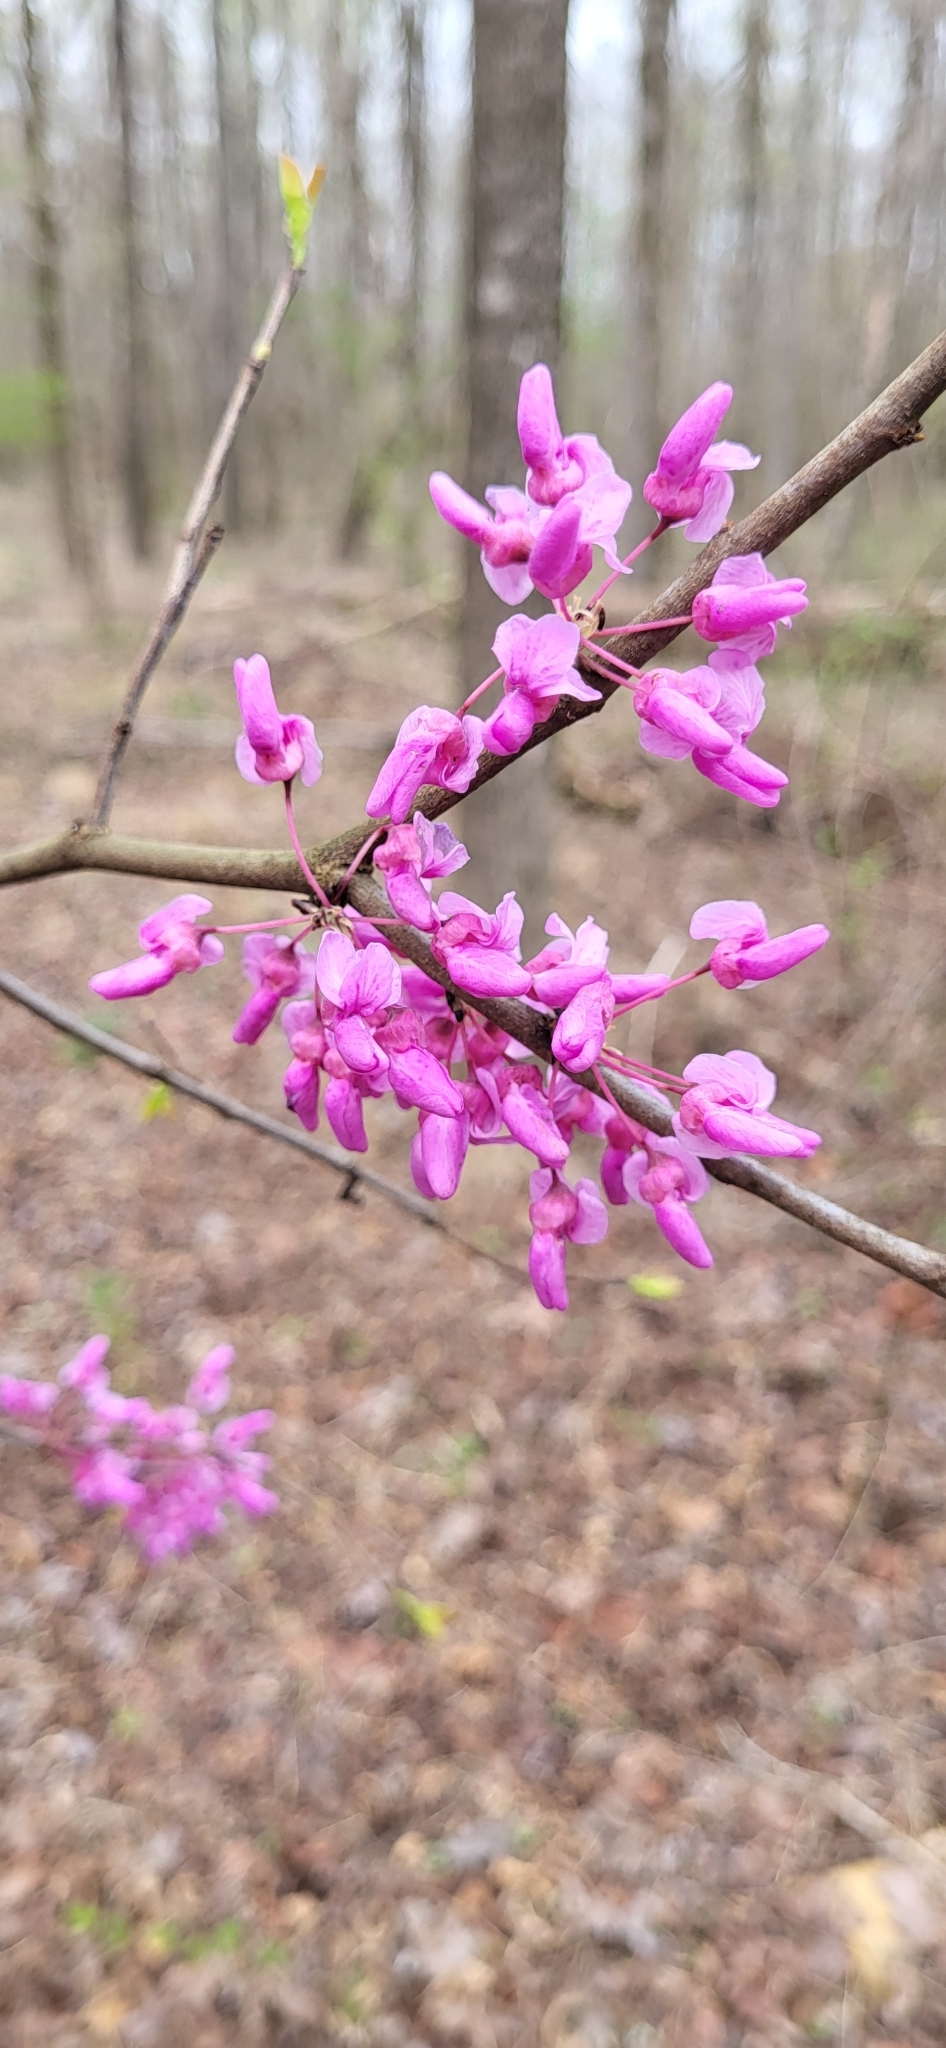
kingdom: Plantae
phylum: Tracheophyta
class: Magnoliopsida
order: Fabales
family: Fabaceae
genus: Cercis
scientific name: Cercis canadensis
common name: Eastern redbud
